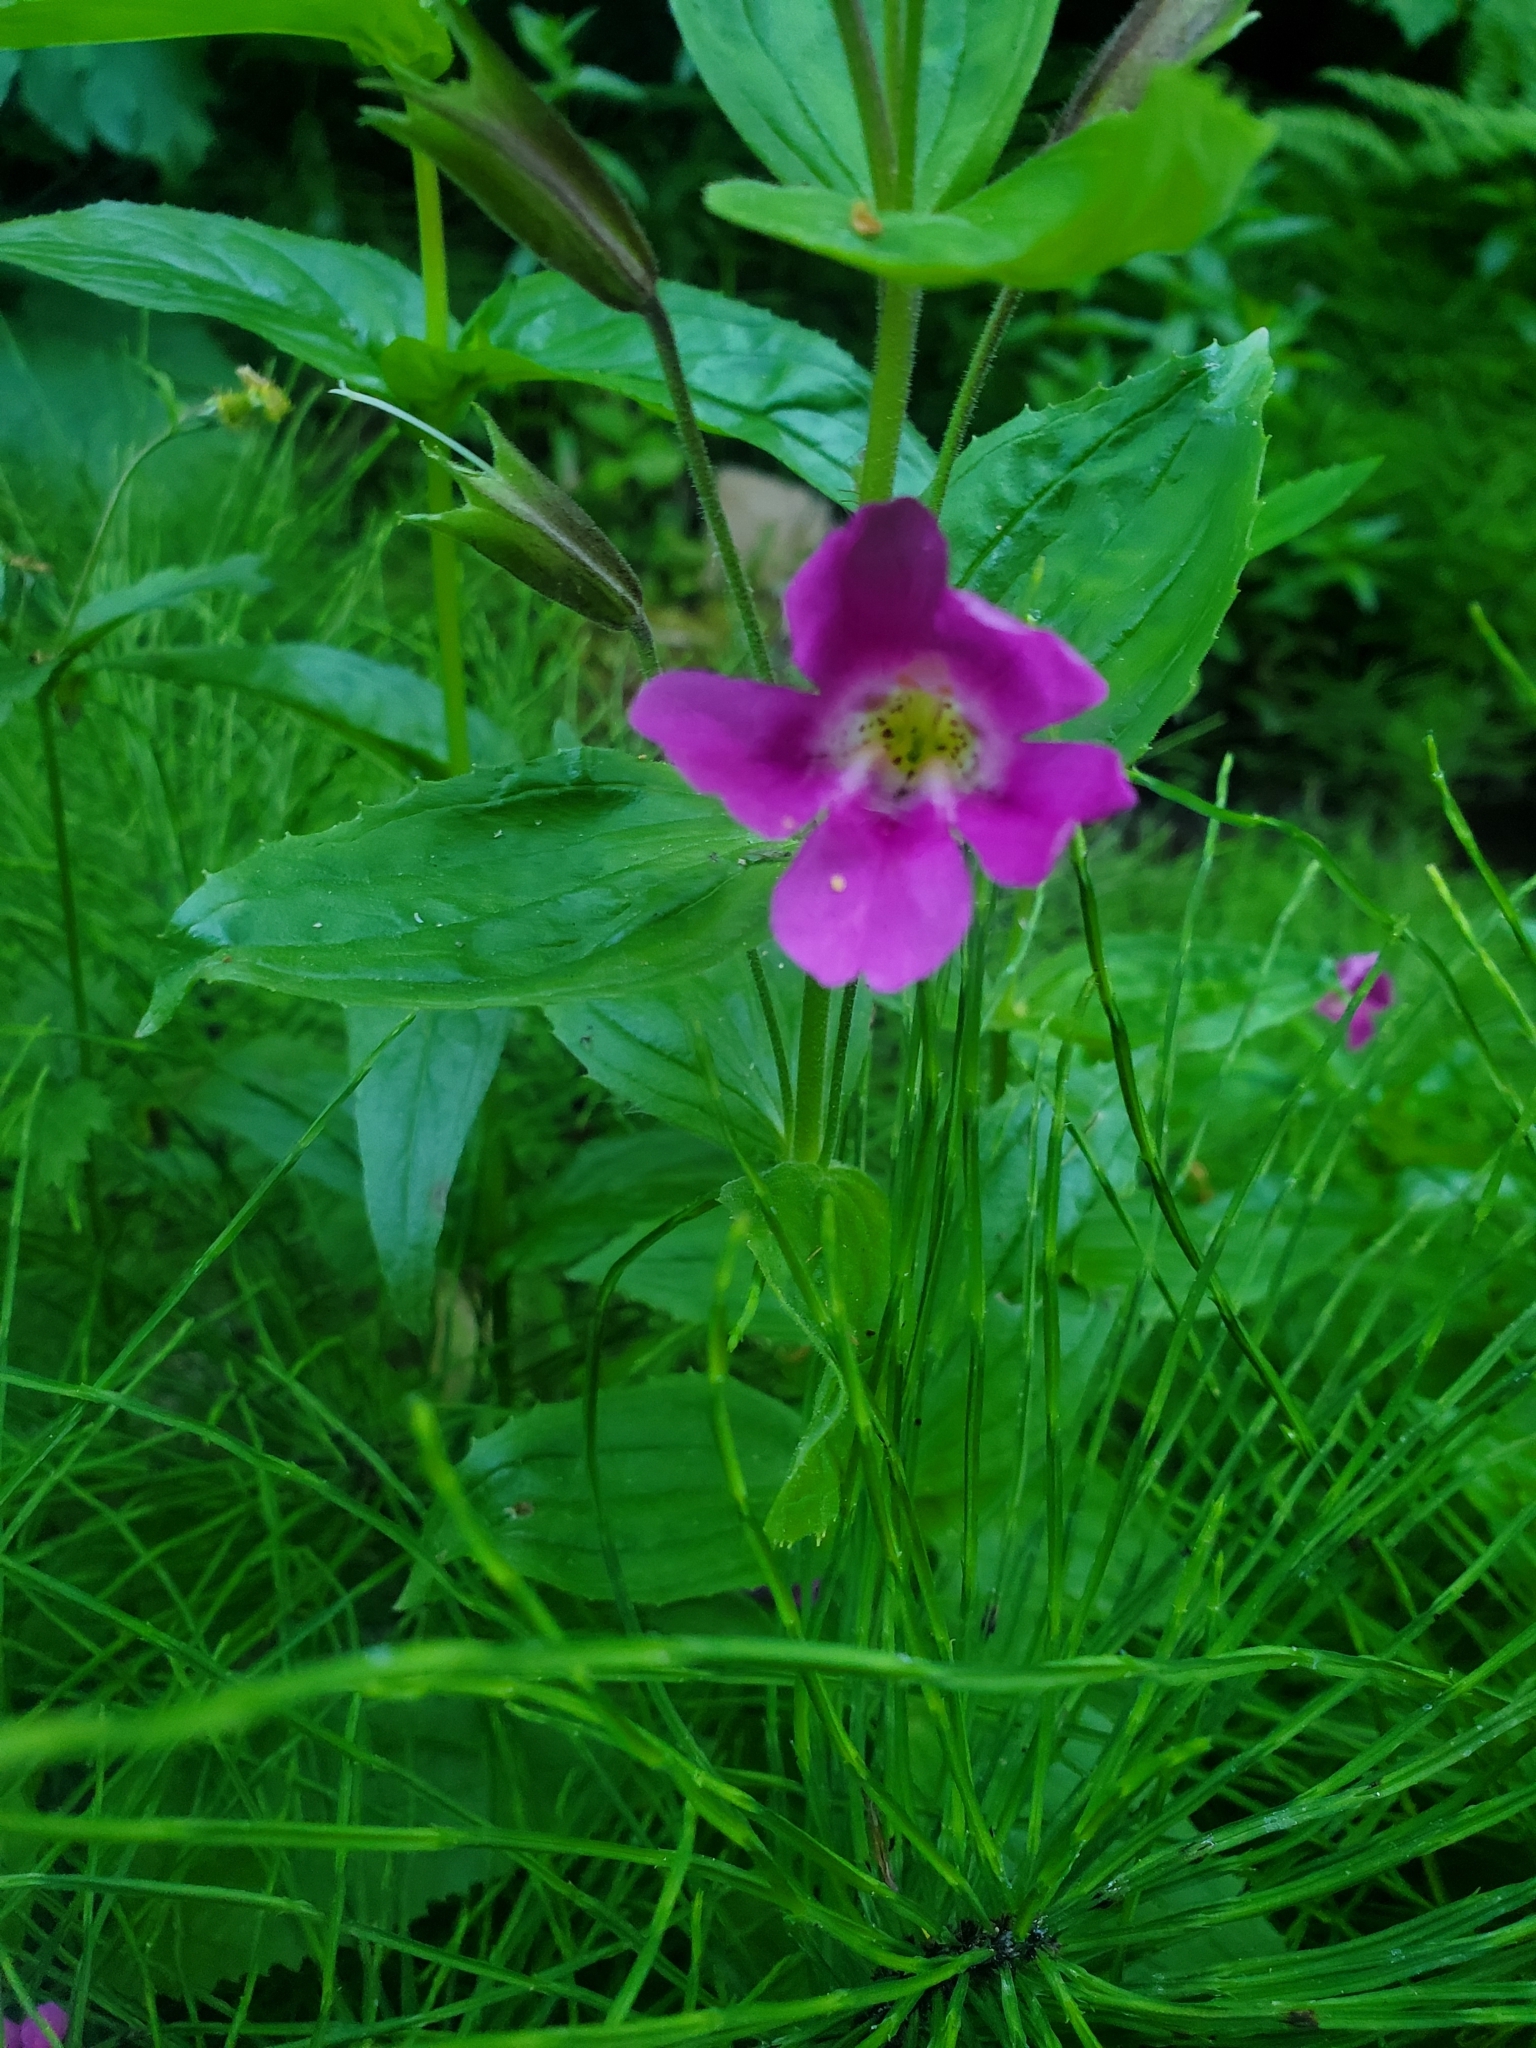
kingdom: Plantae
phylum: Tracheophyta
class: Magnoliopsida
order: Lamiales
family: Phrymaceae
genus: Erythranthe
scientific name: Erythranthe lewisii
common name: Lewis's monkey-flower
